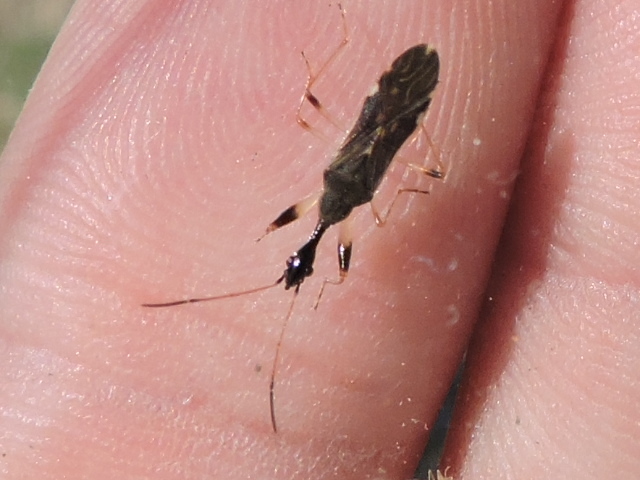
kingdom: Animalia
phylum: Arthropoda
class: Insecta
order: Hemiptera
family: Rhyparochromidae
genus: Myodocha
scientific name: Myodocha serripes
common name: Long-necked seed bug
